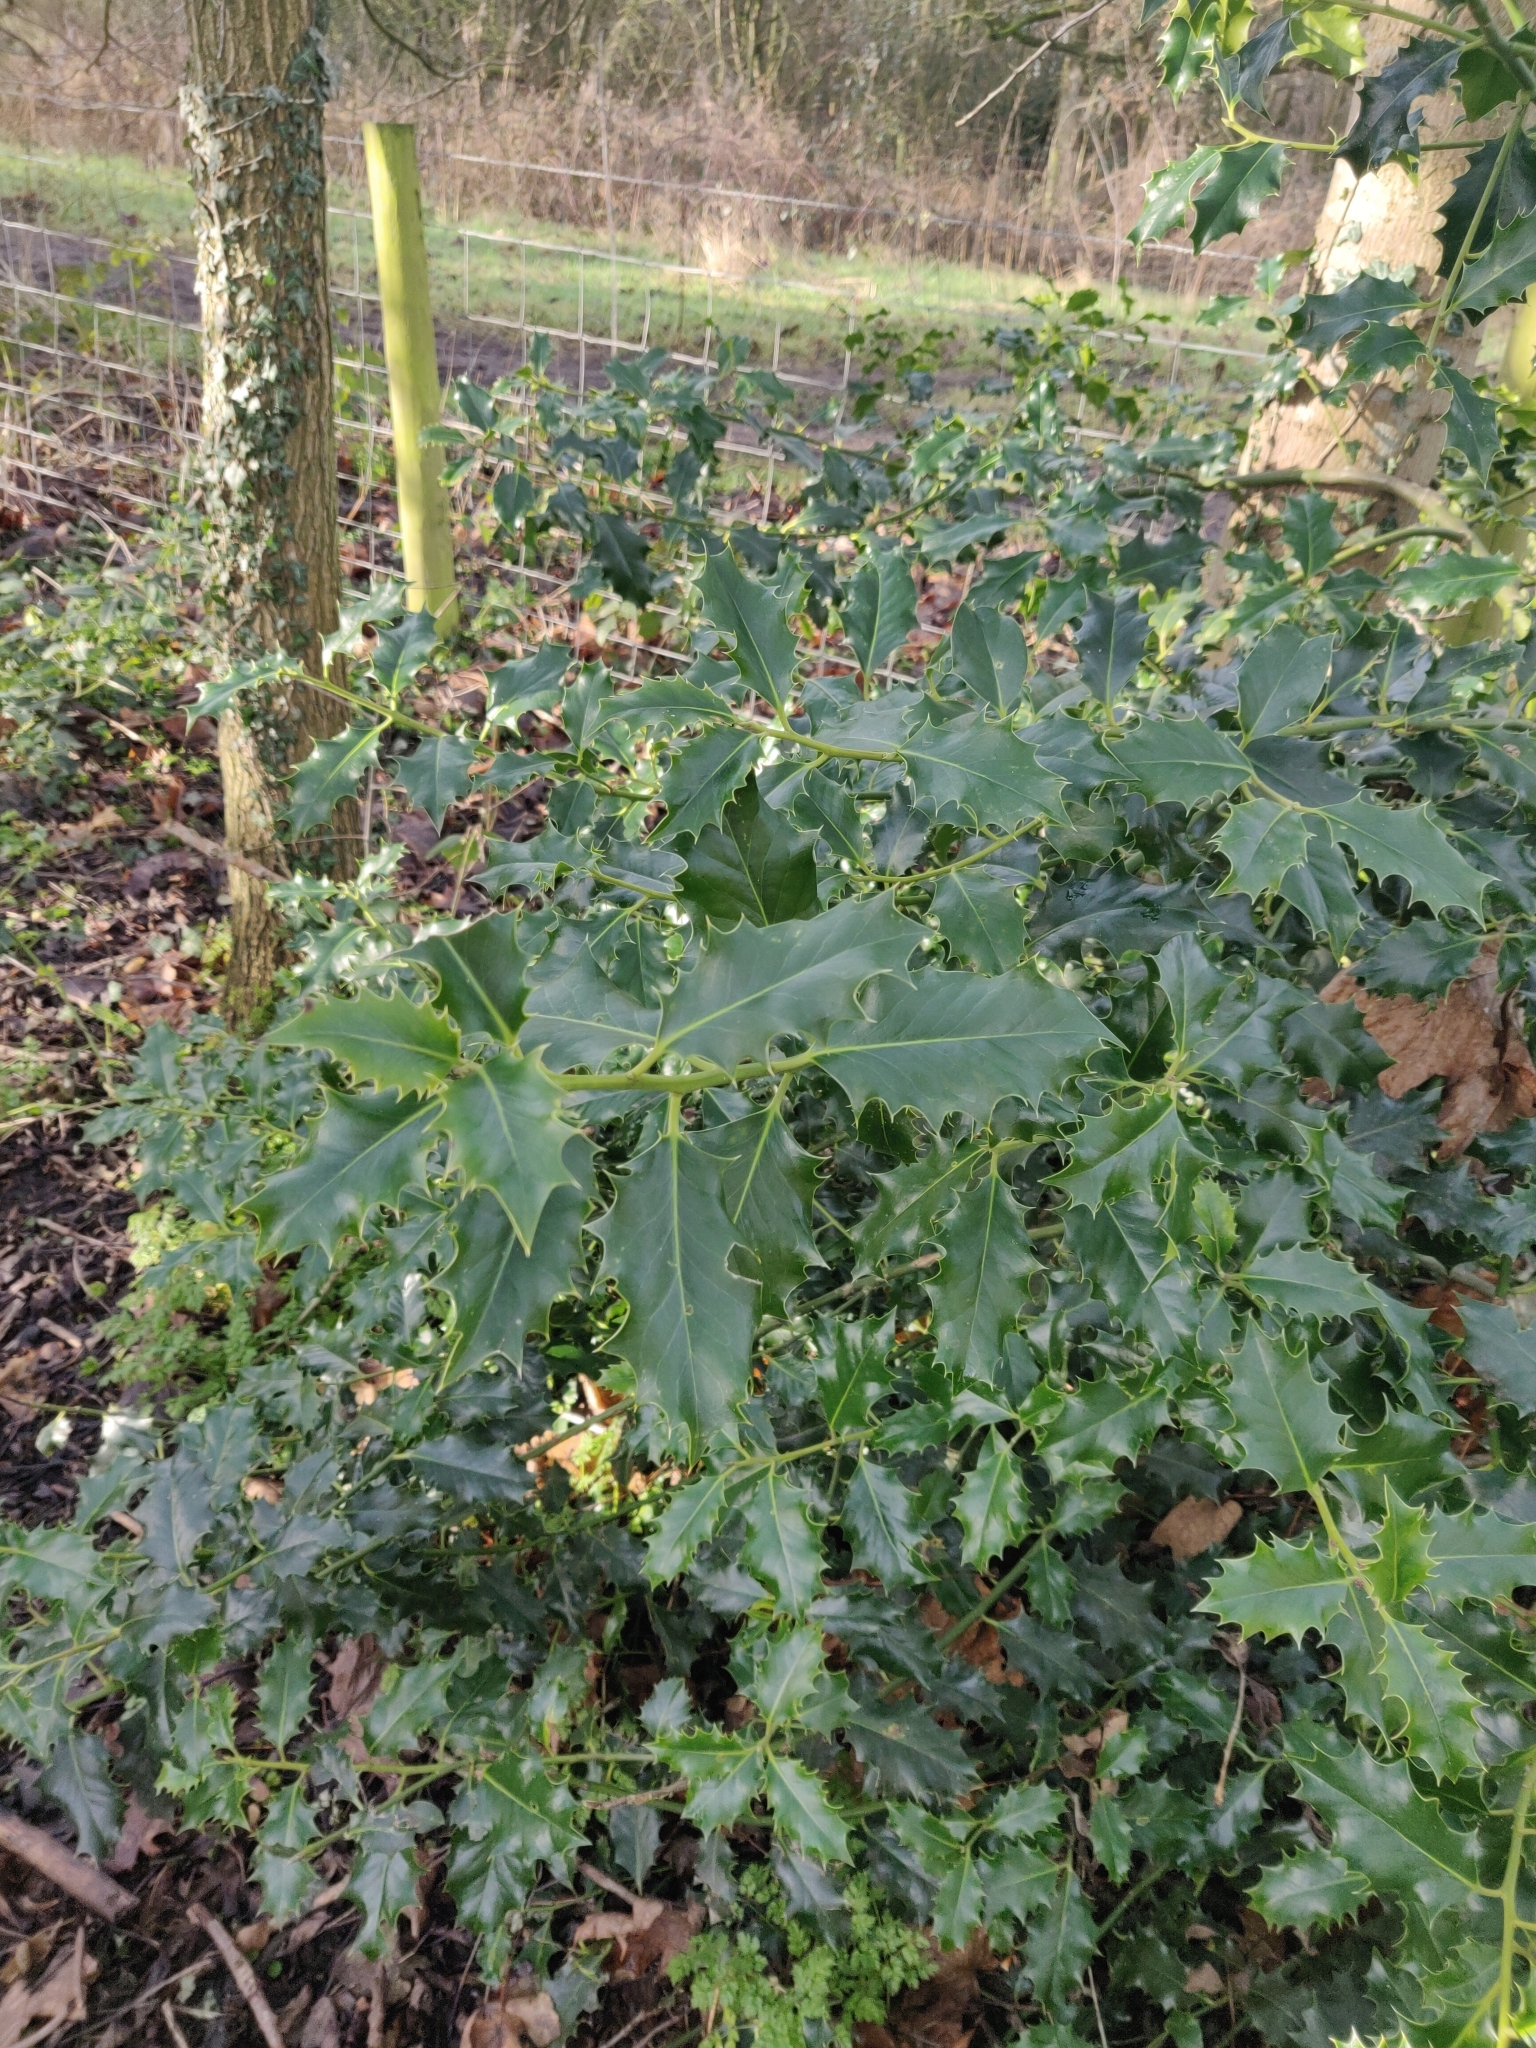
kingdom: Plantae
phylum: Tracheophyta
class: Magnoliopsida
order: Aquifoliales
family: Aquifoliaceae
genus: Ilex
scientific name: Ilex aquifolium
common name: English holly
